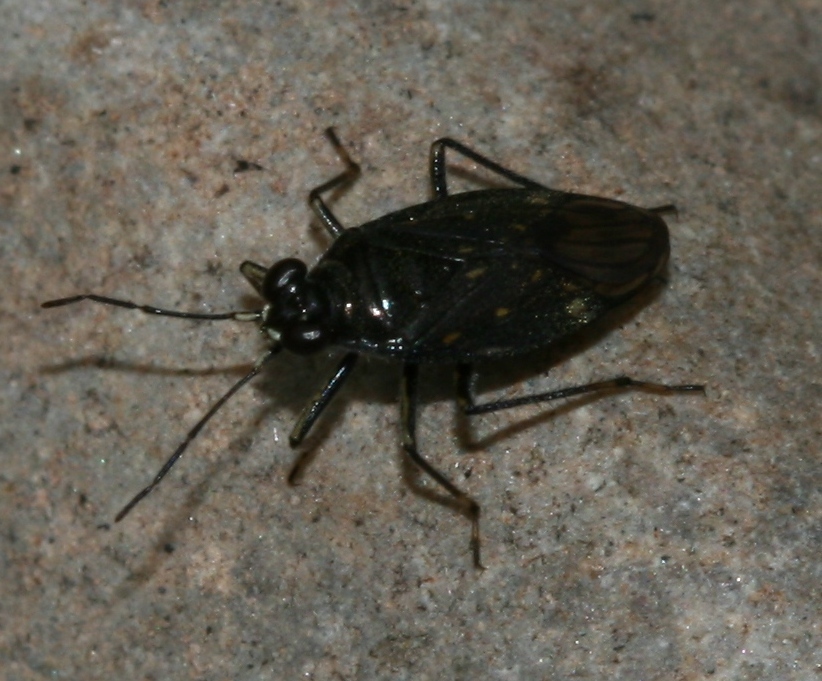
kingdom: Animalia
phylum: Arthropoda
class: Insecta
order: Hemiptera
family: Saldidae
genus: Macrosaldula
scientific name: Macrosaldula scotica
